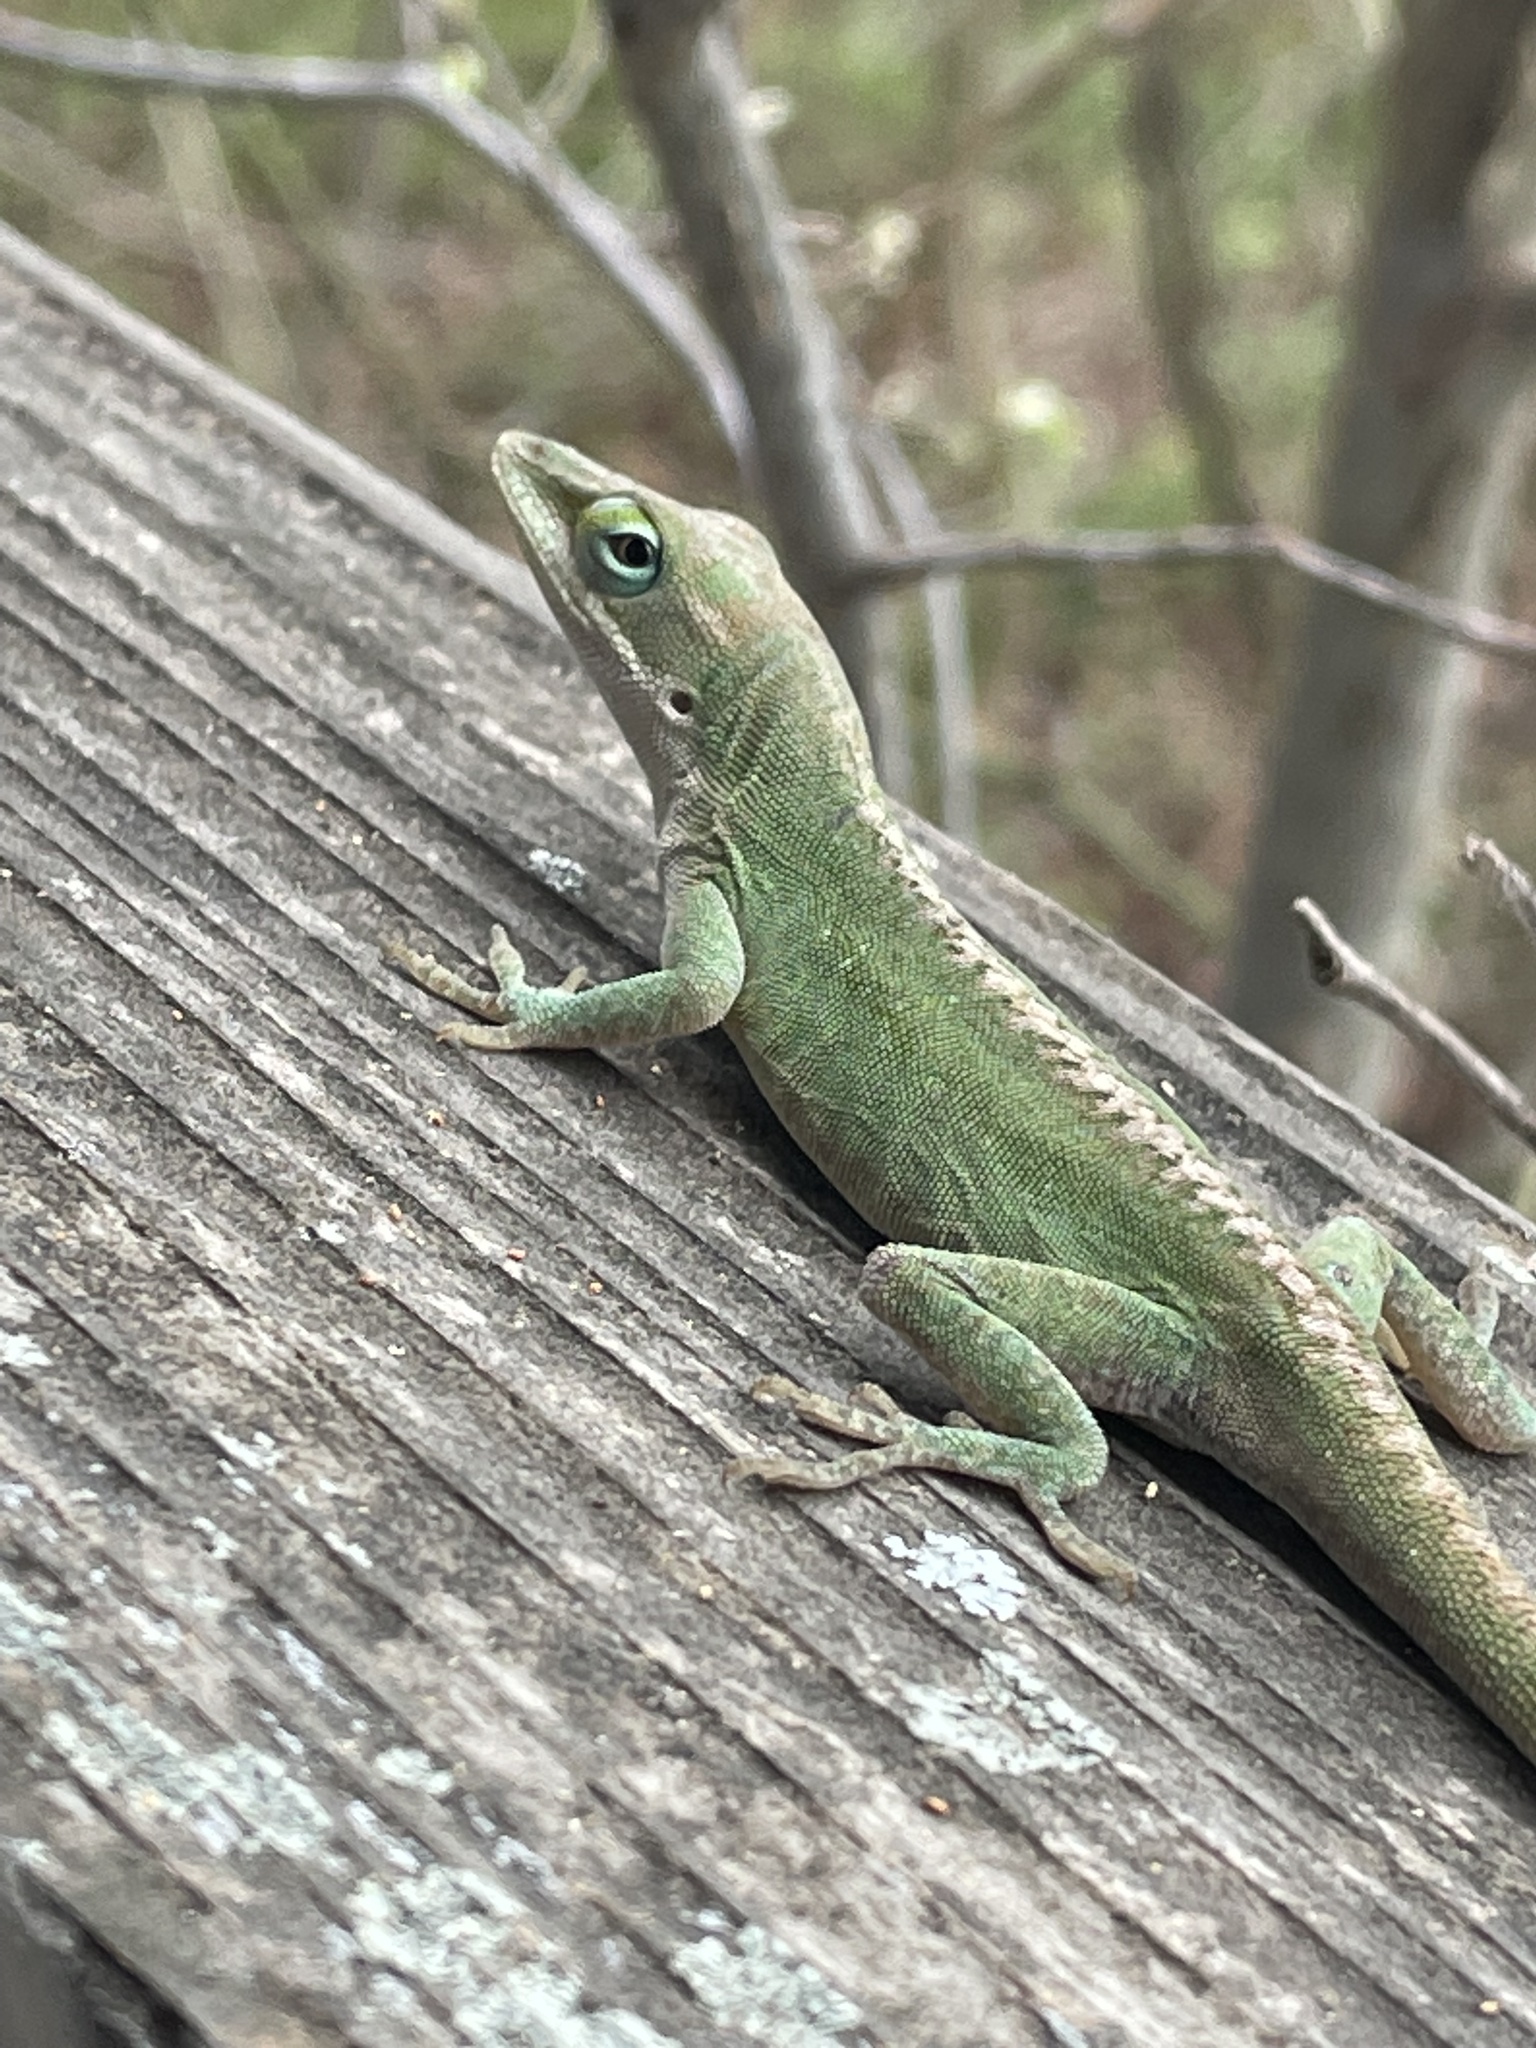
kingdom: Animalia
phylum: Chordata
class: Squamata
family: Dactyloidae
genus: Anolis
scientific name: Anolis carolinensis
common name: Green anole
